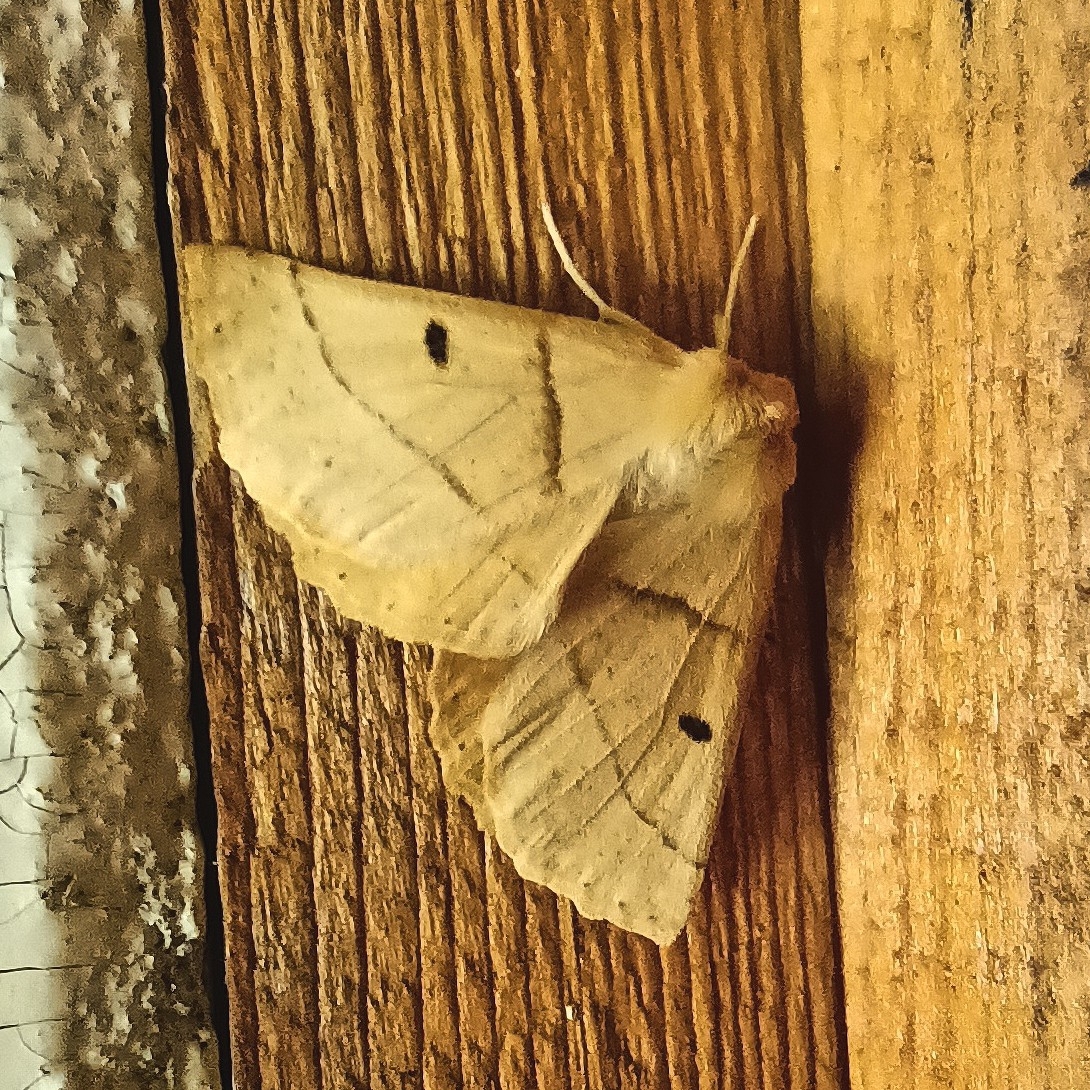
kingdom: Animalia
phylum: Arthropoda
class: Insecta
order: Lepidoptera
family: Geometridae
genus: Crocallis
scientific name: Crocallis elinguaria
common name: Scalloped oak
